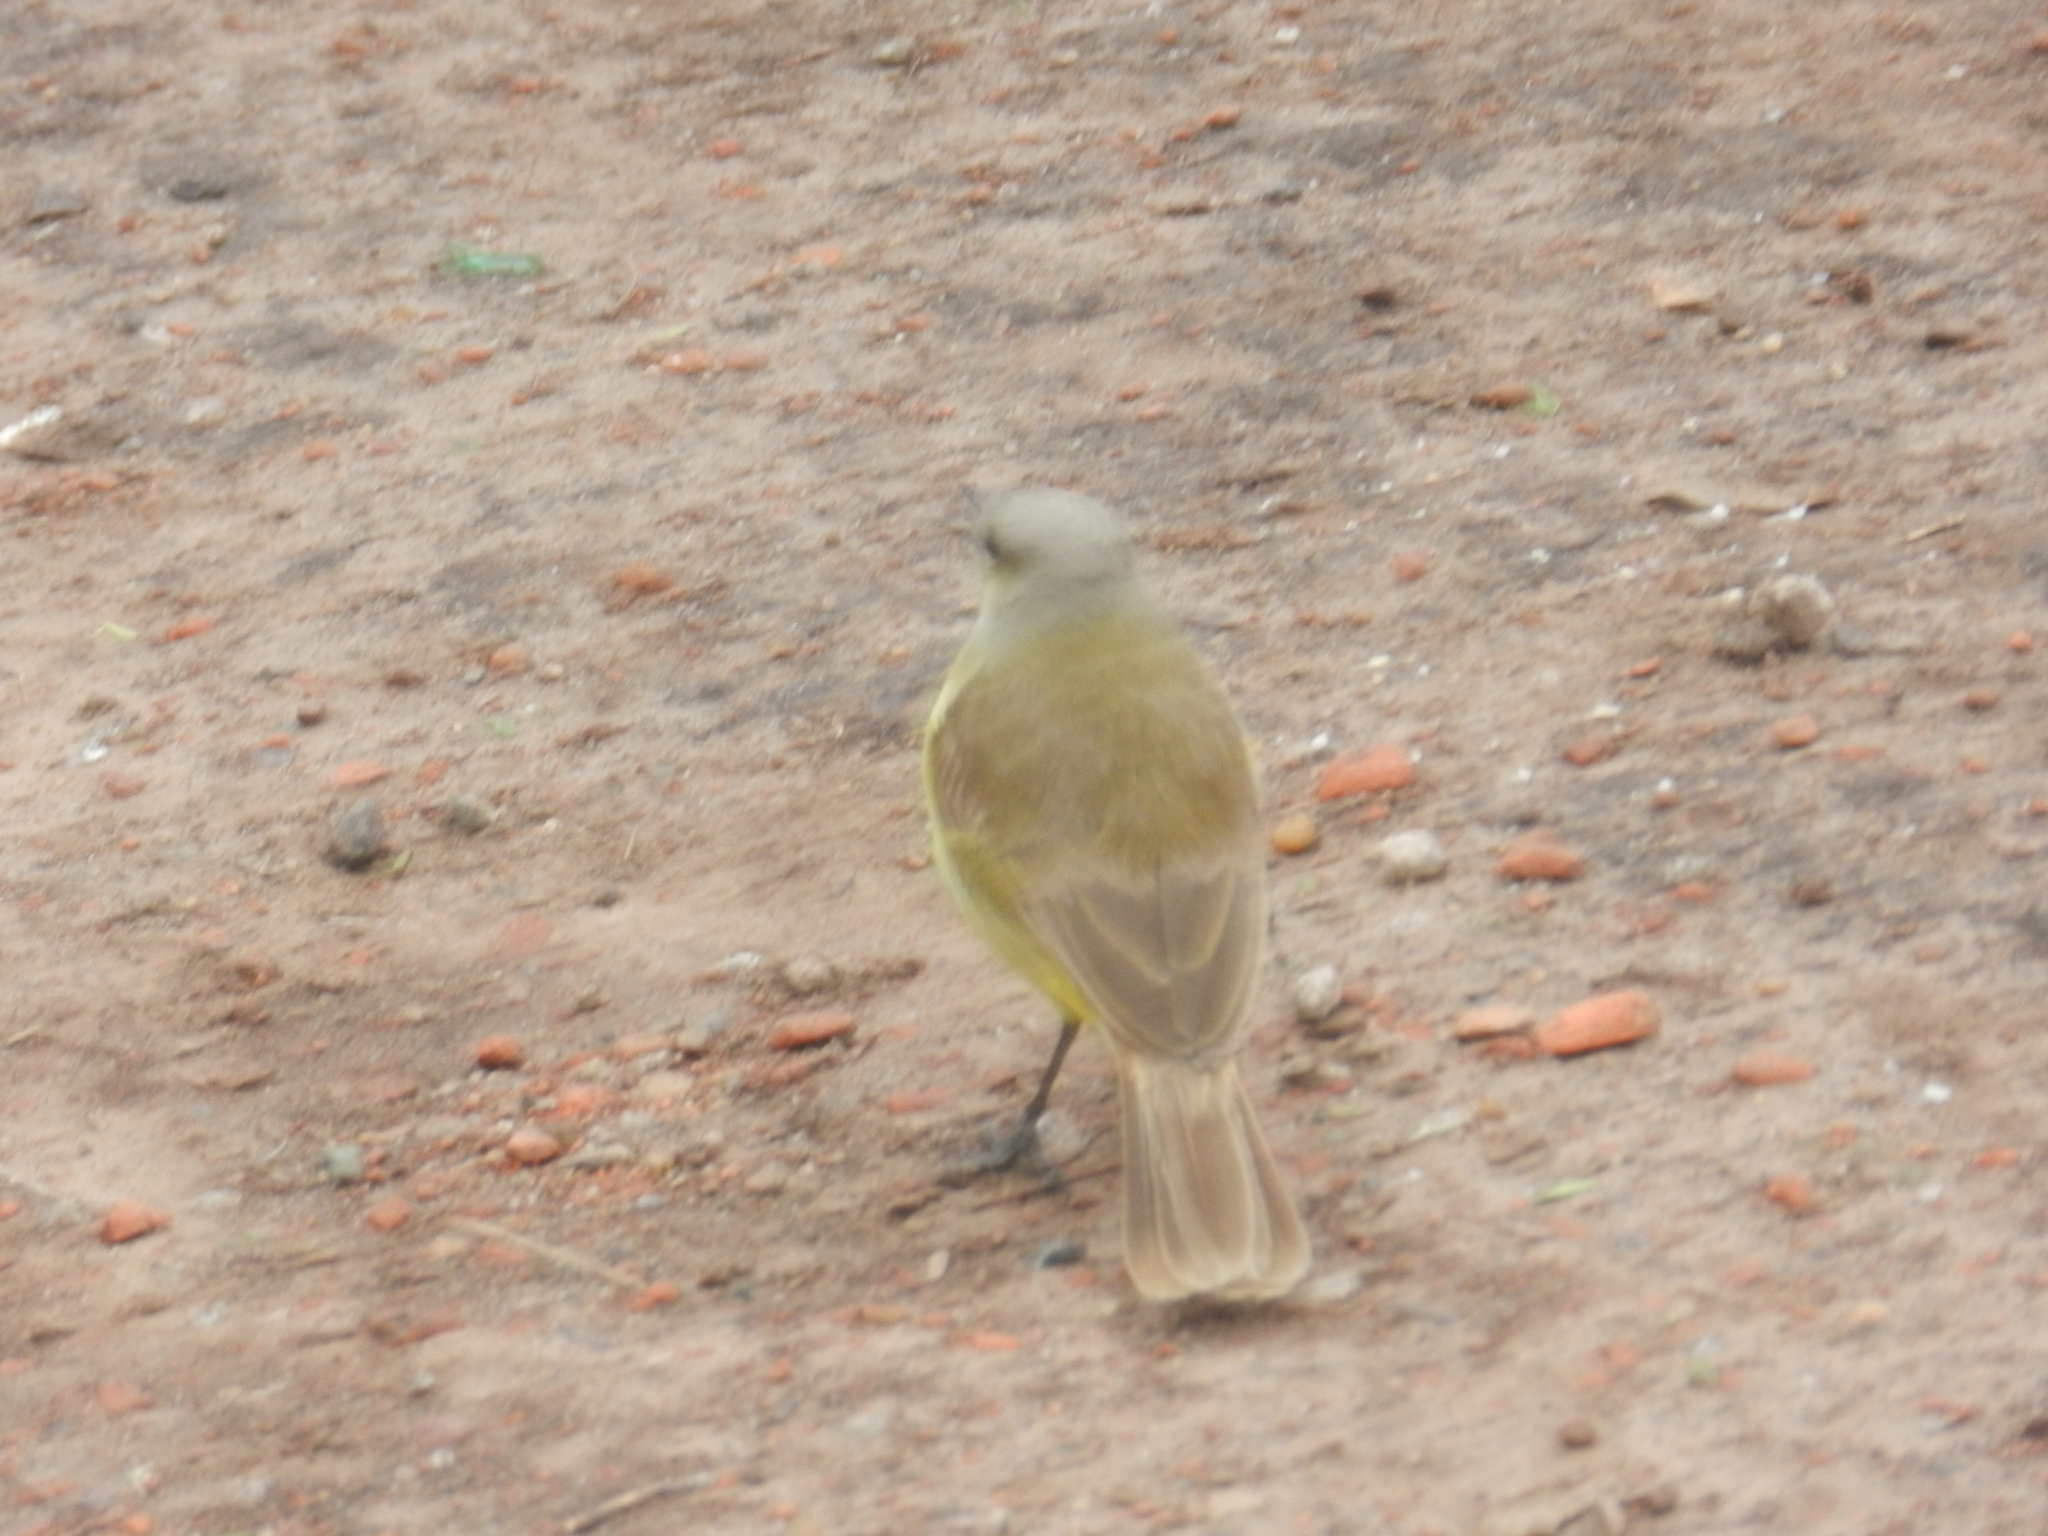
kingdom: Animalia
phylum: Chordata
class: Aves
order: Passeriformes
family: Tyrannidae
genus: Machetornis
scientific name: Machetornis rixosa
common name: Cattle tyrant
